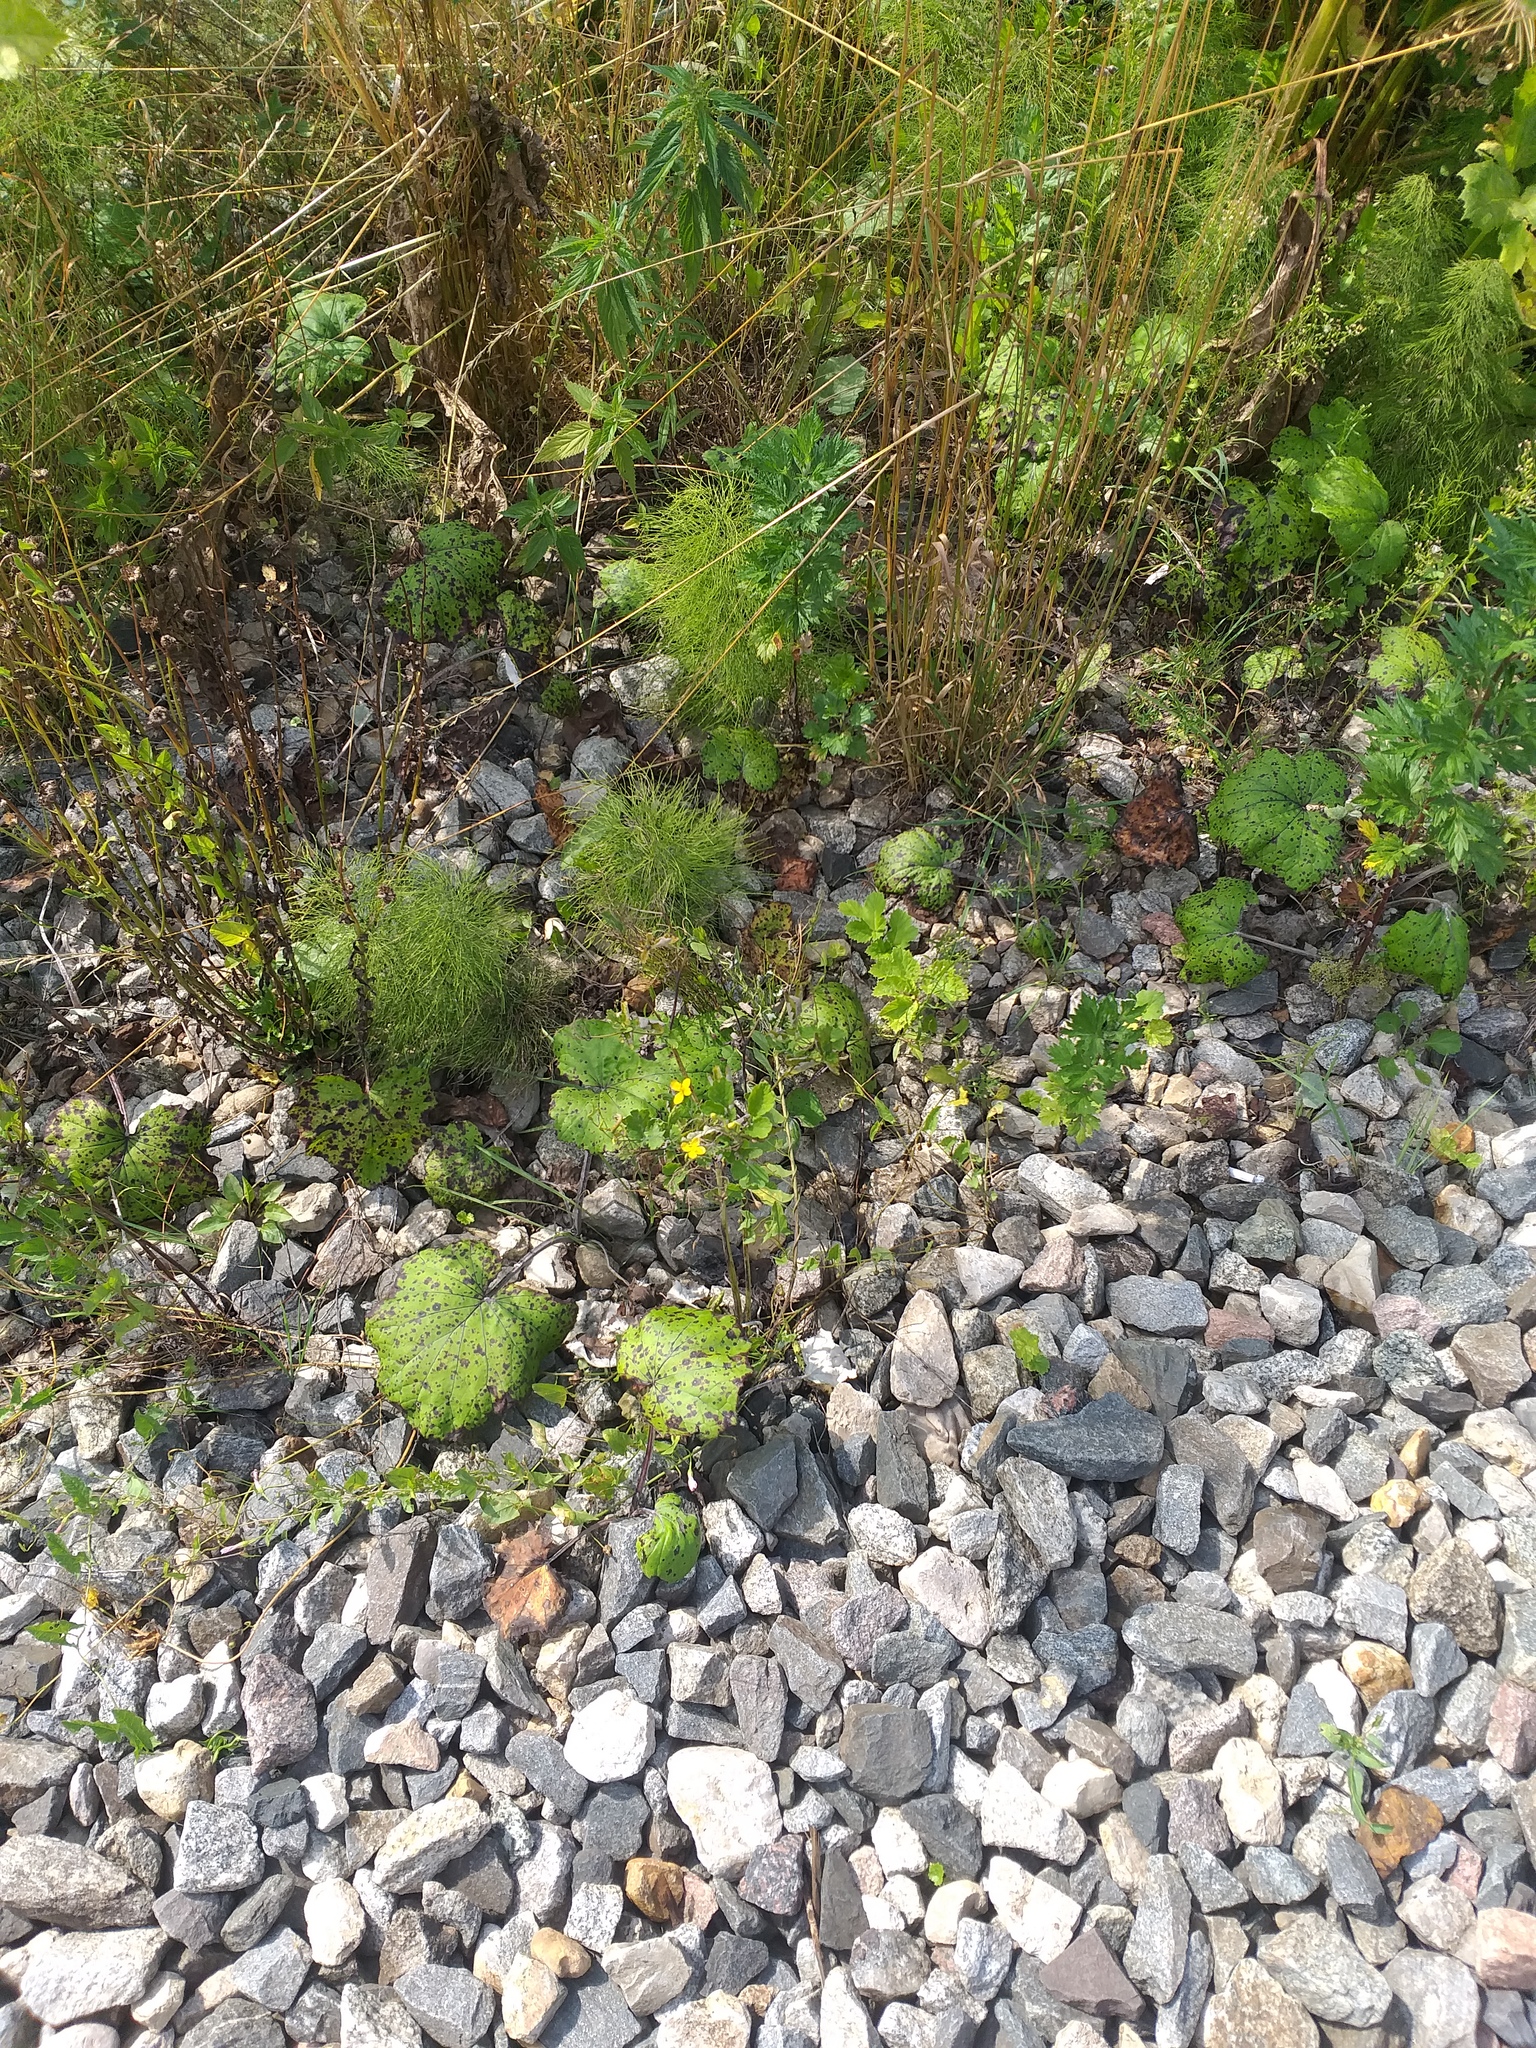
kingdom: Plantae
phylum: Tracheophyta
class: Magnoliopsida
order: Ranunculales
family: Papaveraceae
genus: Chelidonium
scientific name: Chelidonium majus
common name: Greater celandine
